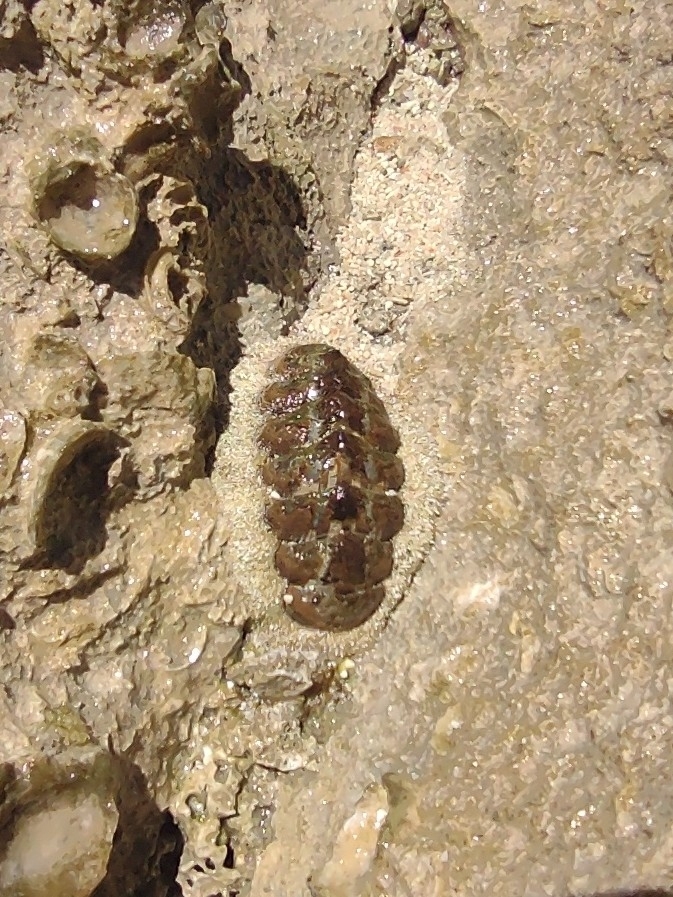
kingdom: Animalia
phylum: Mollusca
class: Polyplacophora
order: Chitonida
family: Chitonidae
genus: Acanthopleura
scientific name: Acanthopleura granulata
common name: West indian fuzzy chiton
